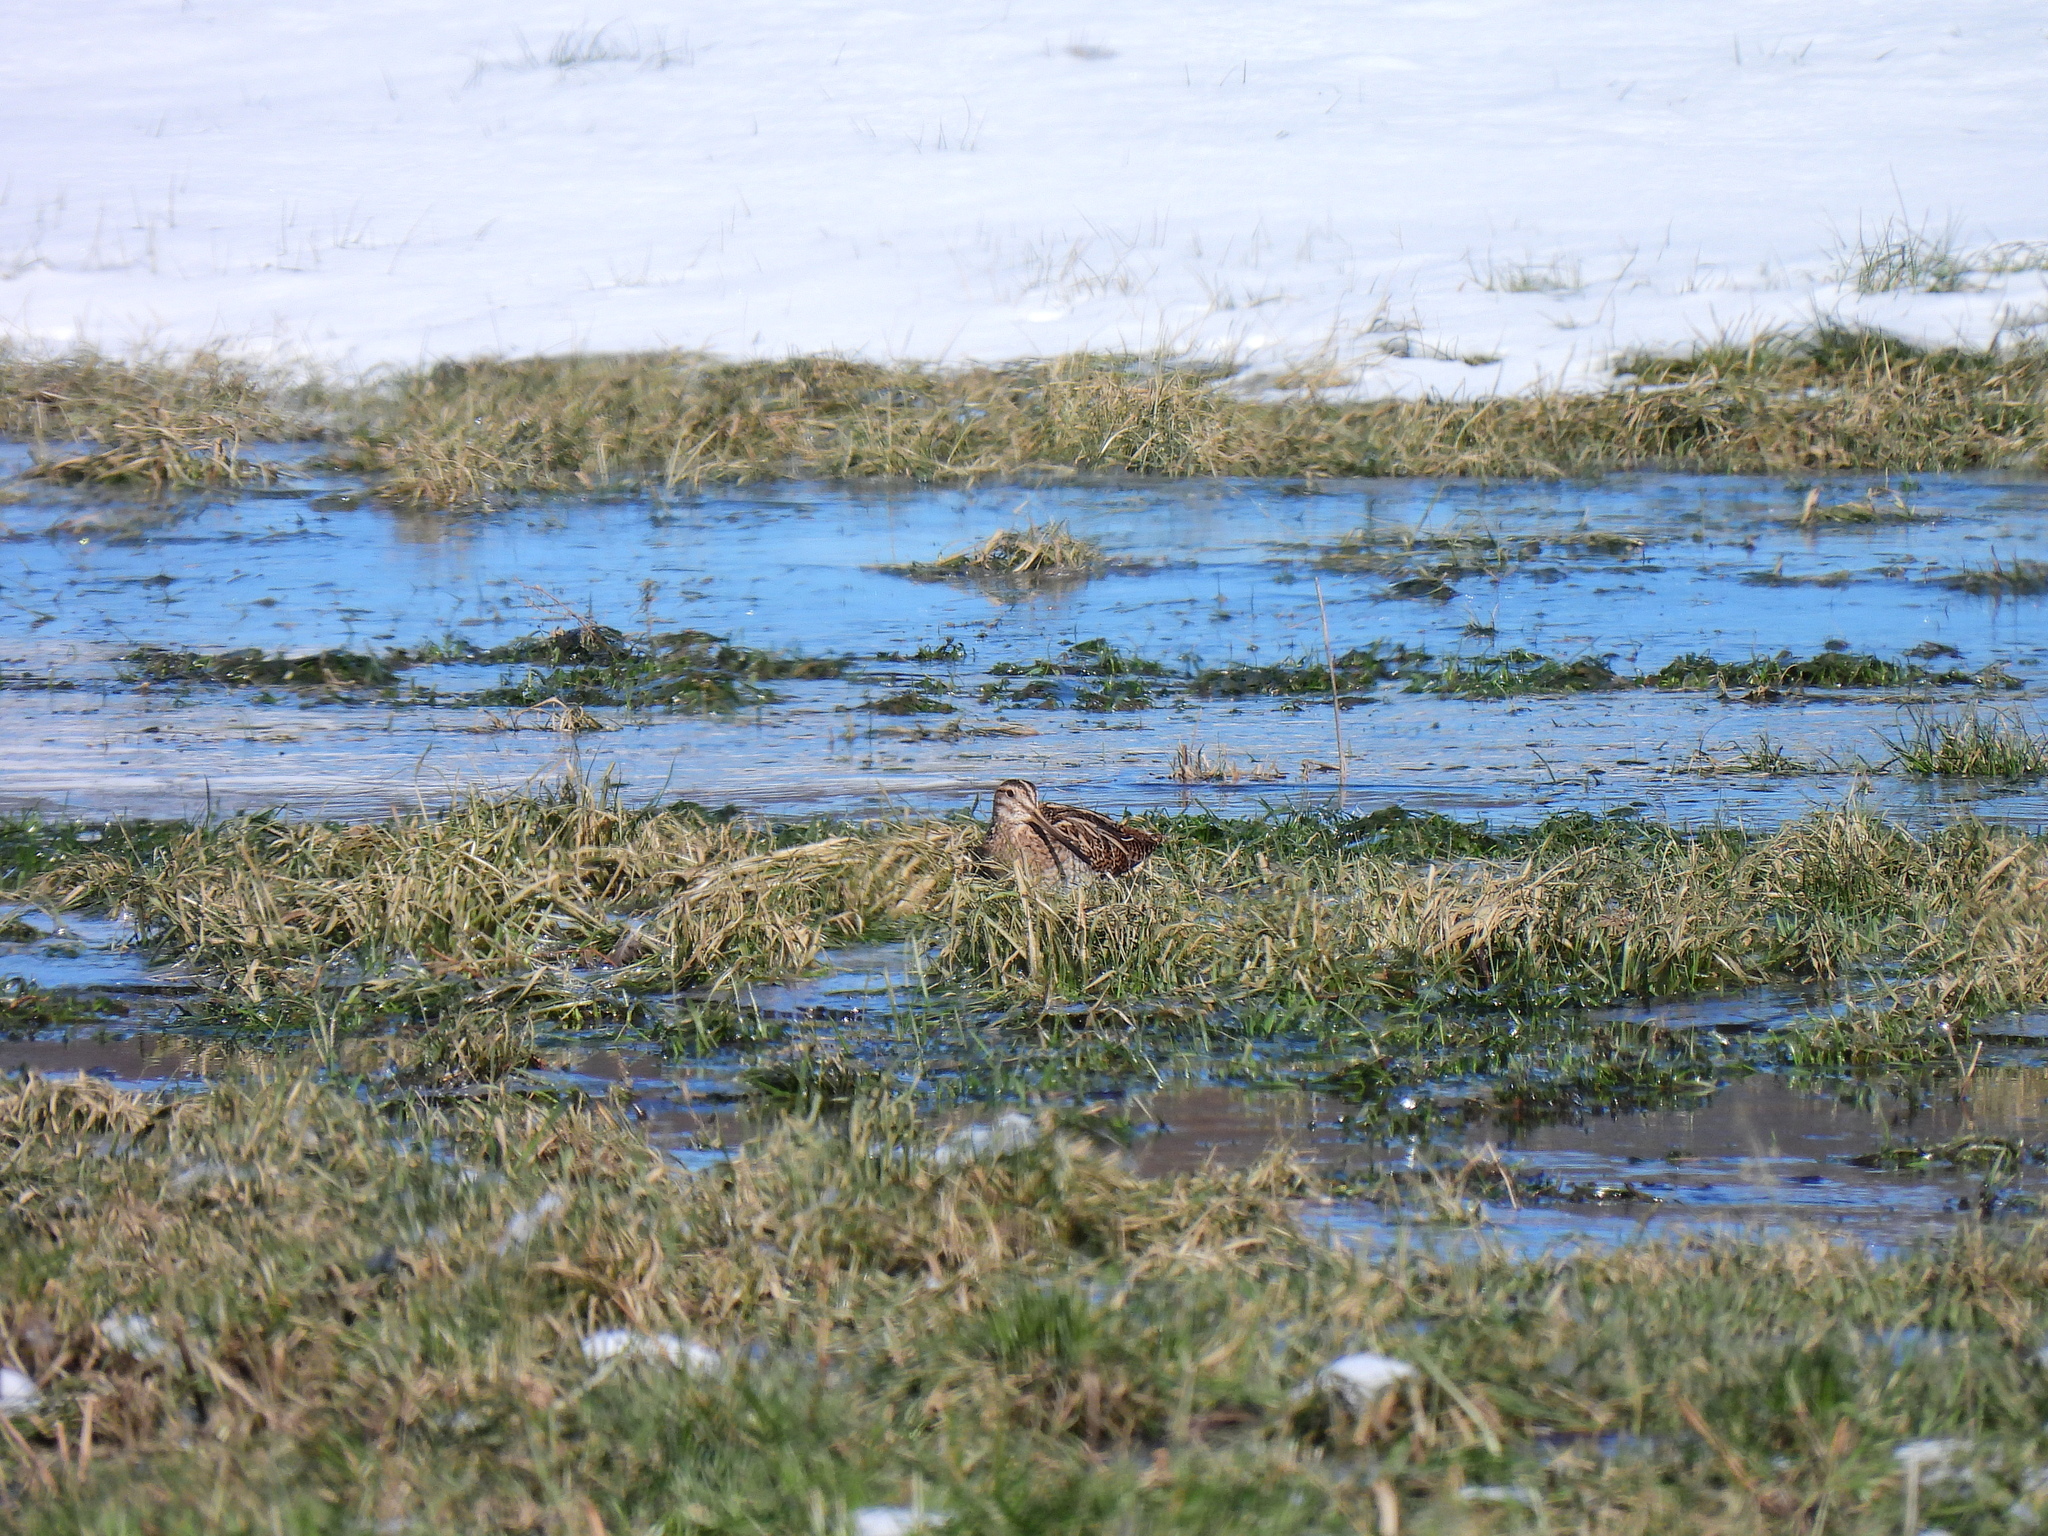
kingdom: Animalia
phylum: Chordata
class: Aves
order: Charadriiformes
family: Scolopacidae
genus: Gallinago
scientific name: Gallinago gallinago
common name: Common snipe
